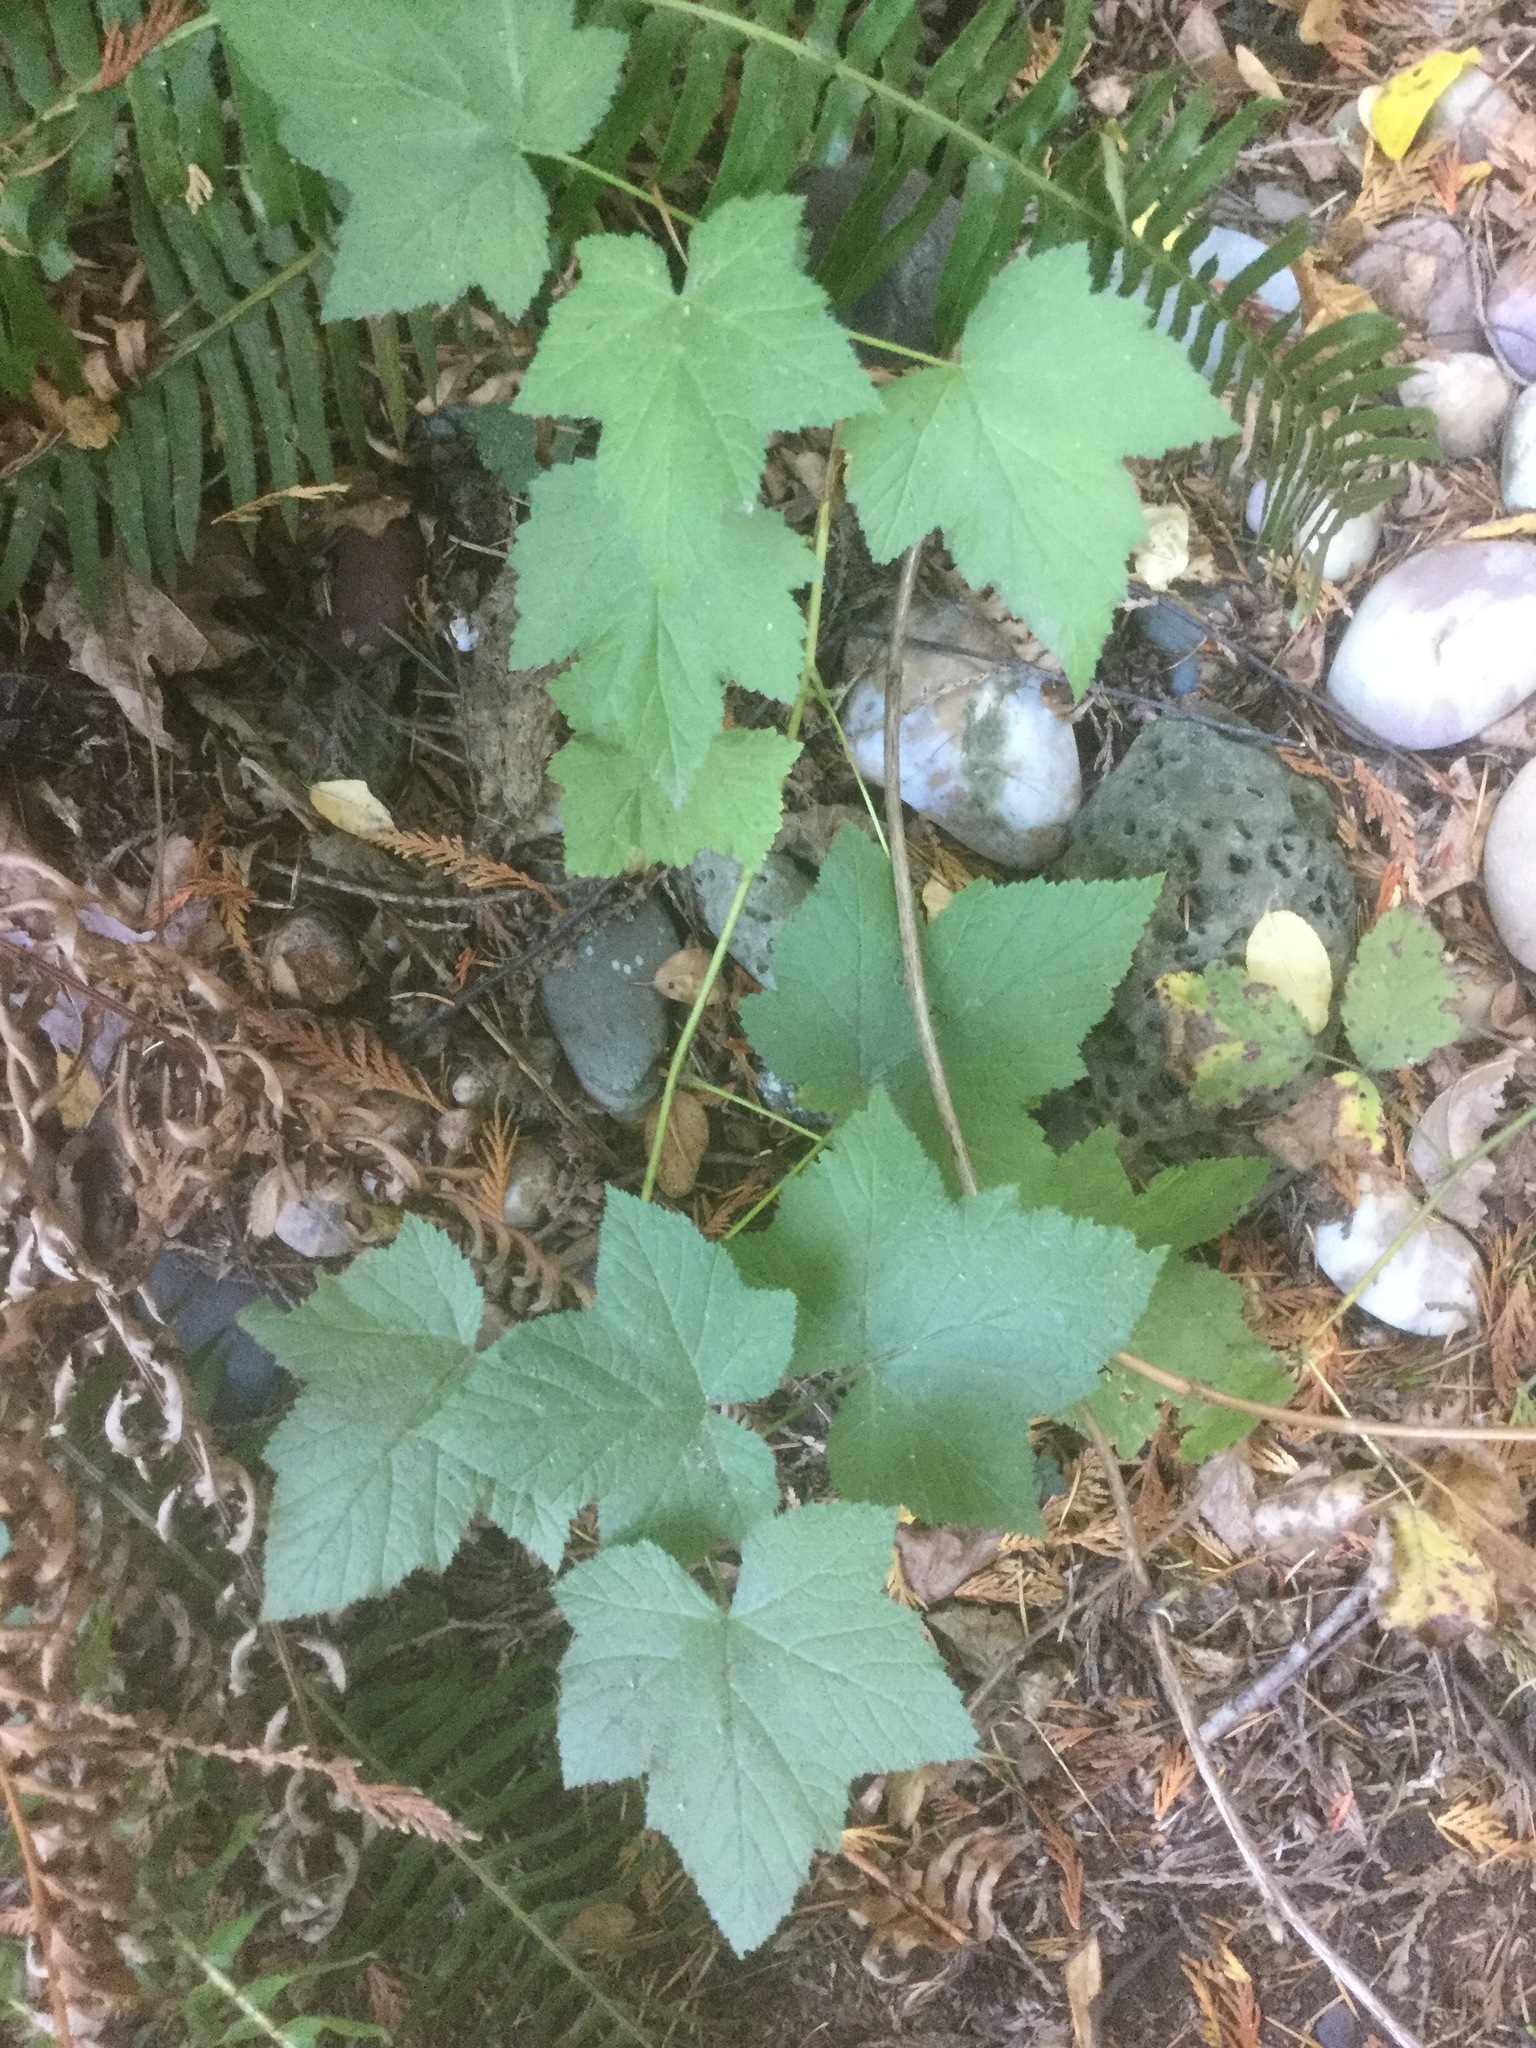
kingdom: Plantae
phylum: Tracheophyta
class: Magnoliopsida
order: Rosales
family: Rosaceae
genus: Rubus
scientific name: Rubus parviflorus
